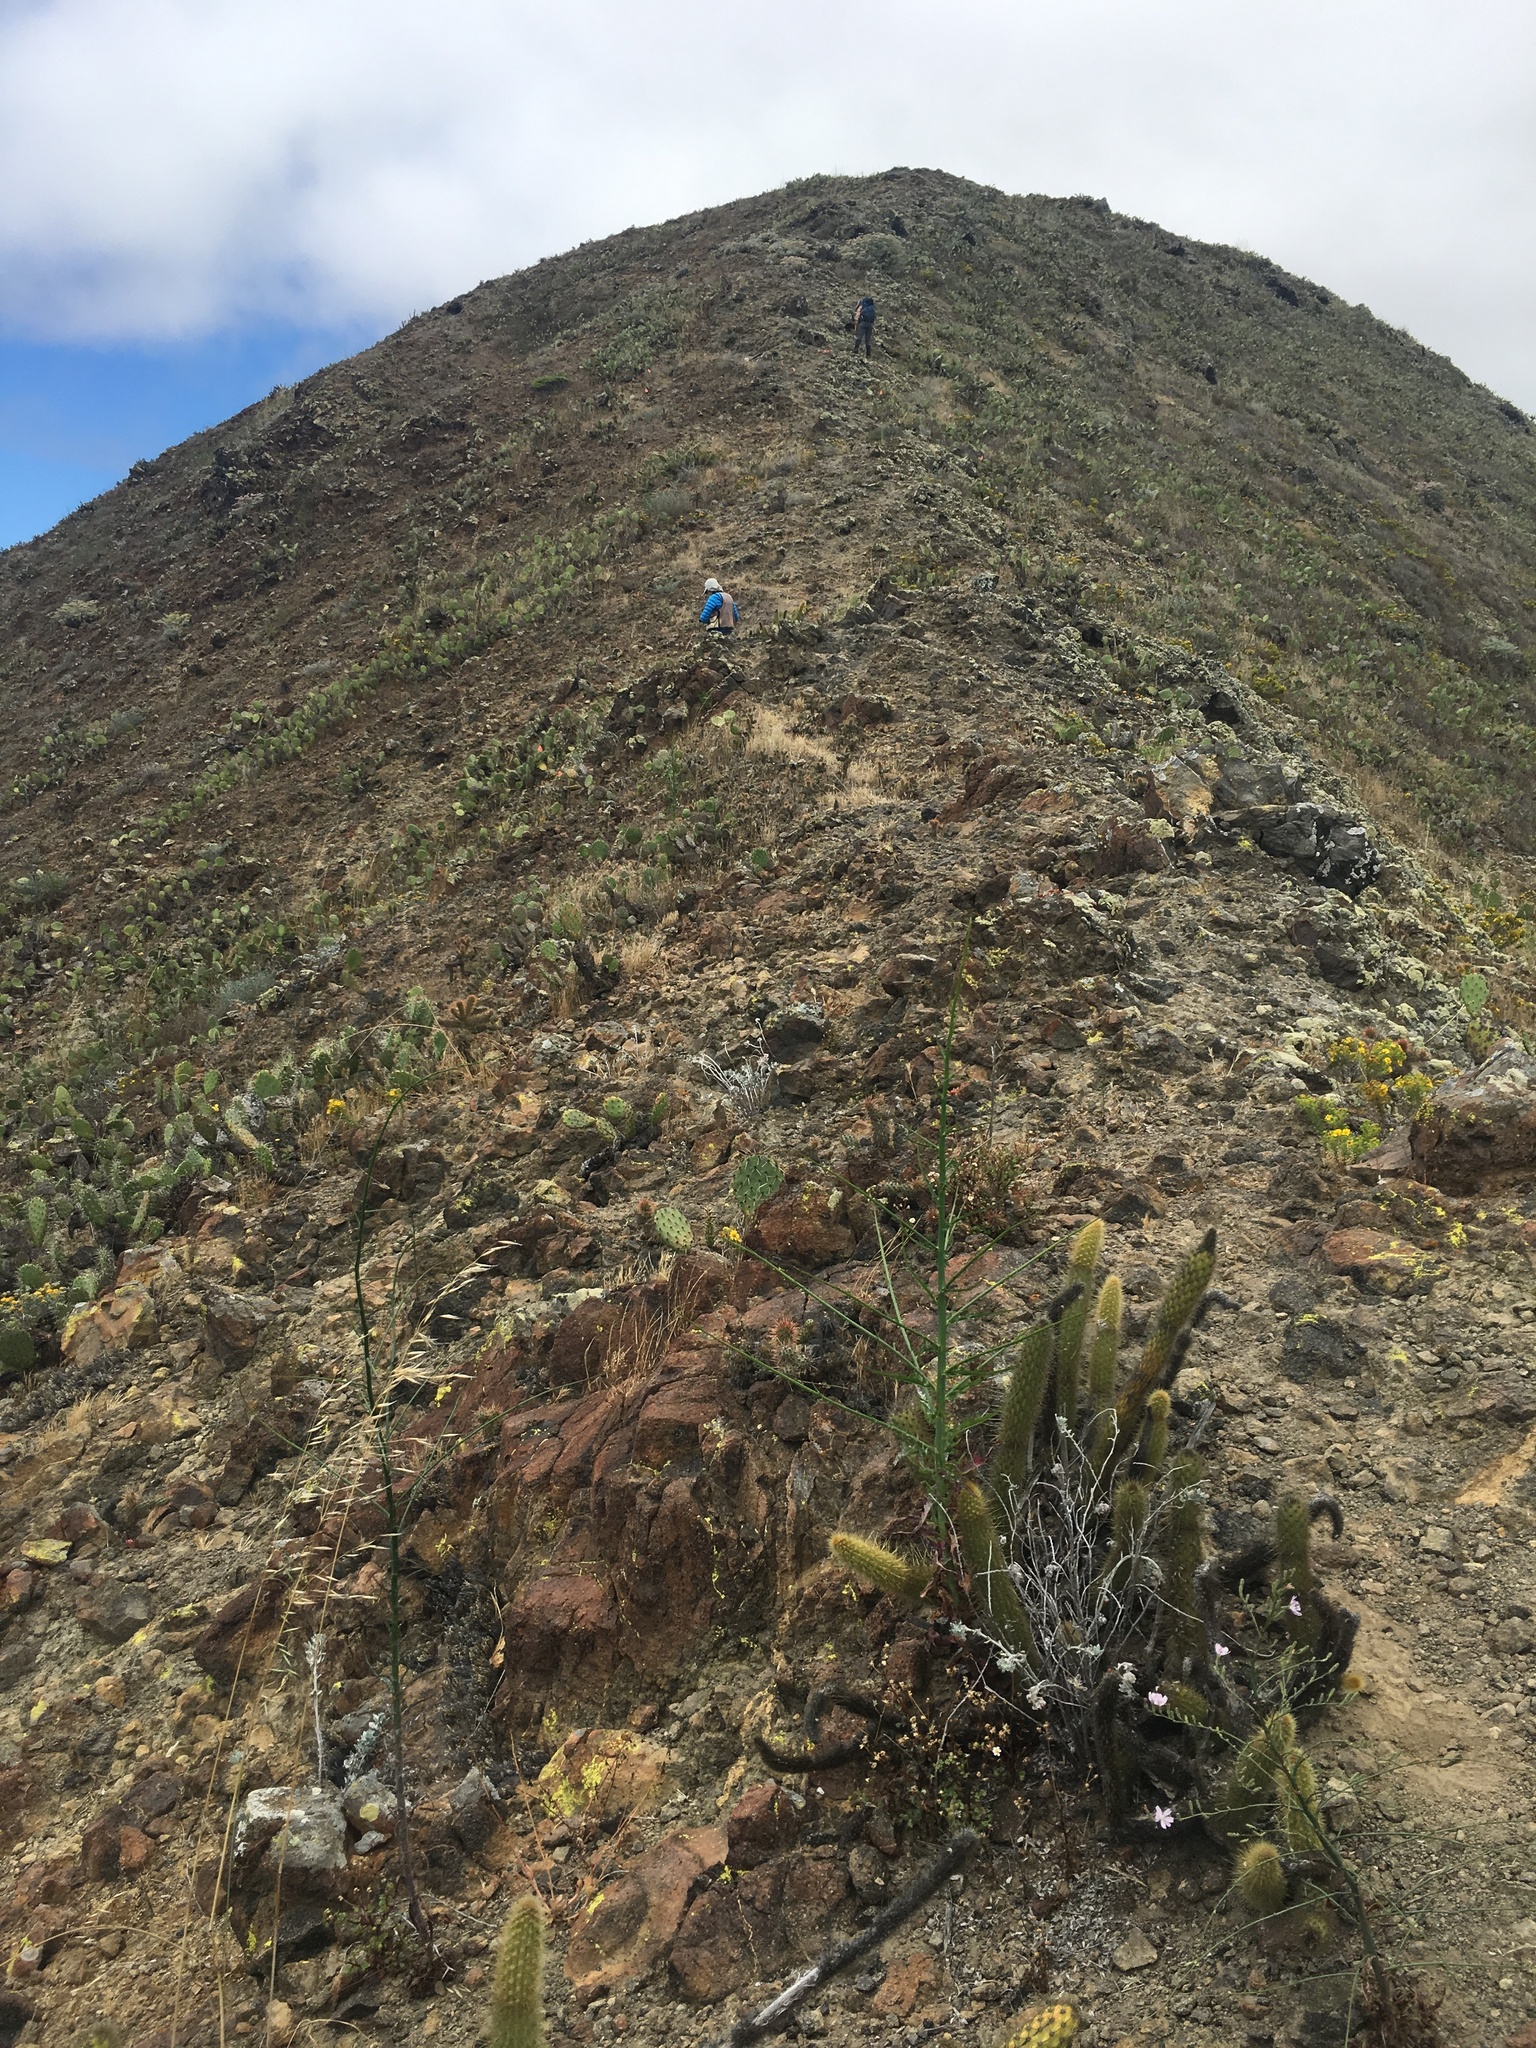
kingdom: Plantae
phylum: Tracheophyta
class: Magnoliopsida
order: Caryophyllales
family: Cactaceae
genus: Bergerocactus
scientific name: Bergerocactus emoryi
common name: Golden snakecactus
